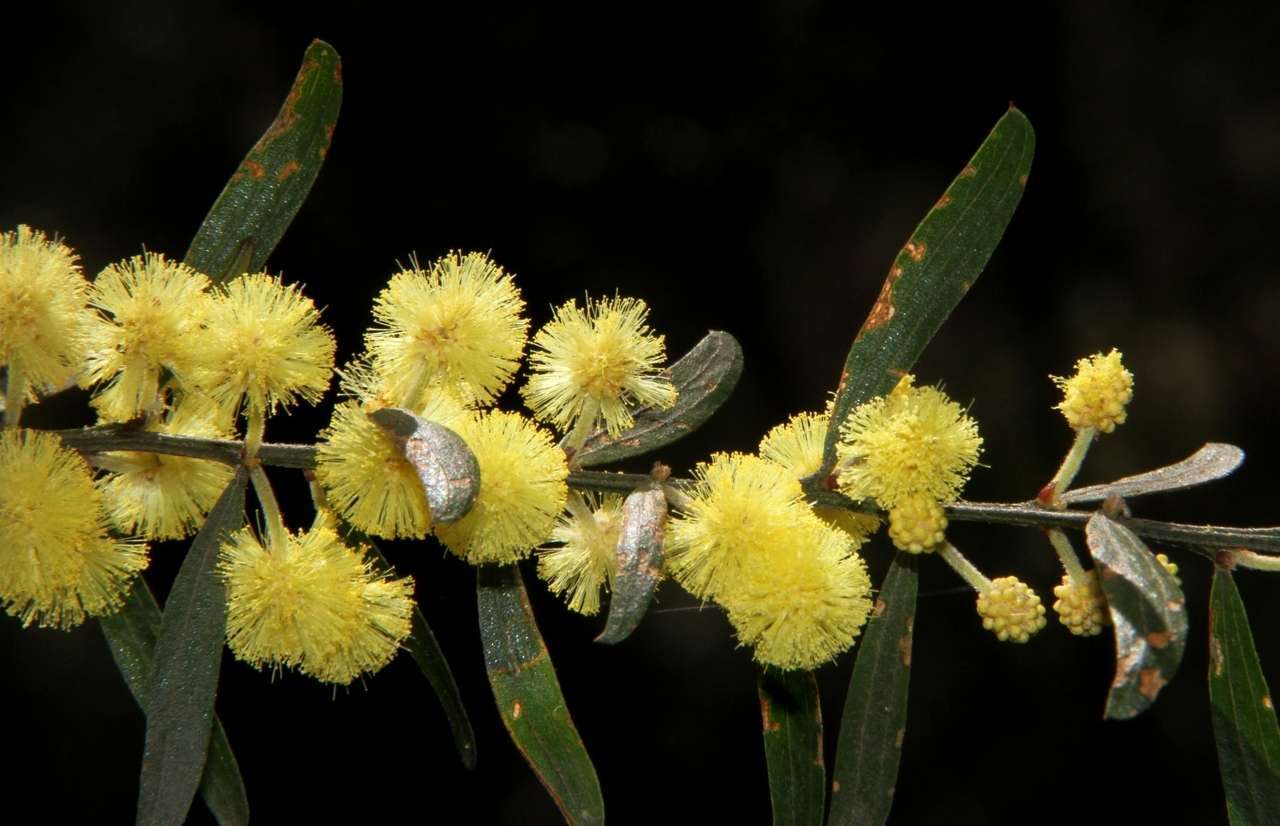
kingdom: Plantae
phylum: Tracheophyta
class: Magnoliopsida
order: Fabales
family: Fabaceae
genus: Acacia
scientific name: Acacia rostriformis
